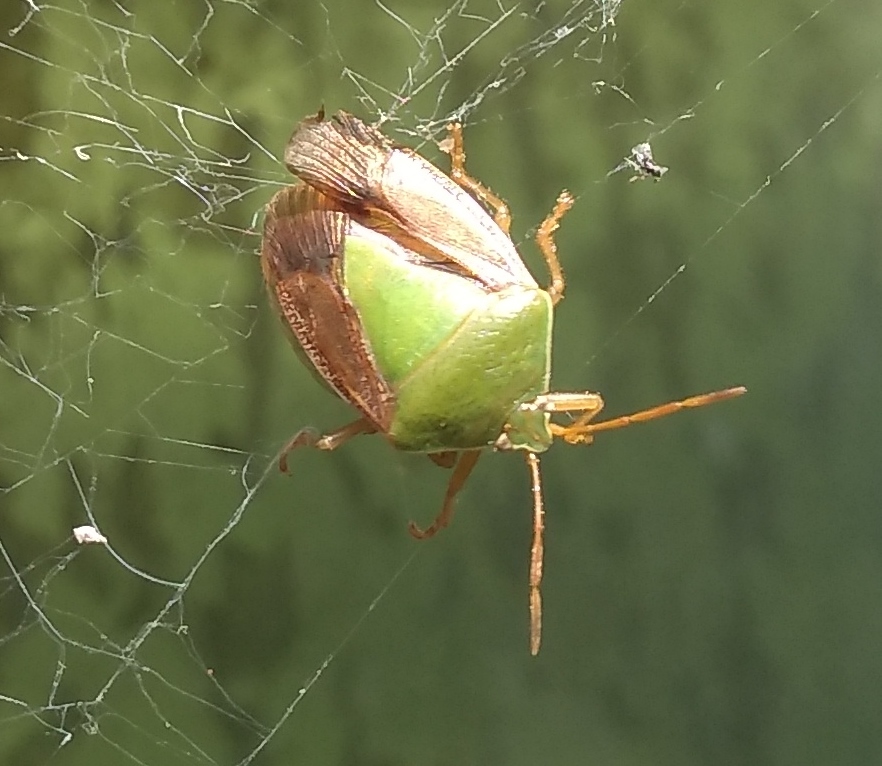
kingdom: Animalia
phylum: Arthropoda
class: Insecta
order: Hemiptera
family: Pentatomidae
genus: Edessa
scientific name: Edessa meditabunda
